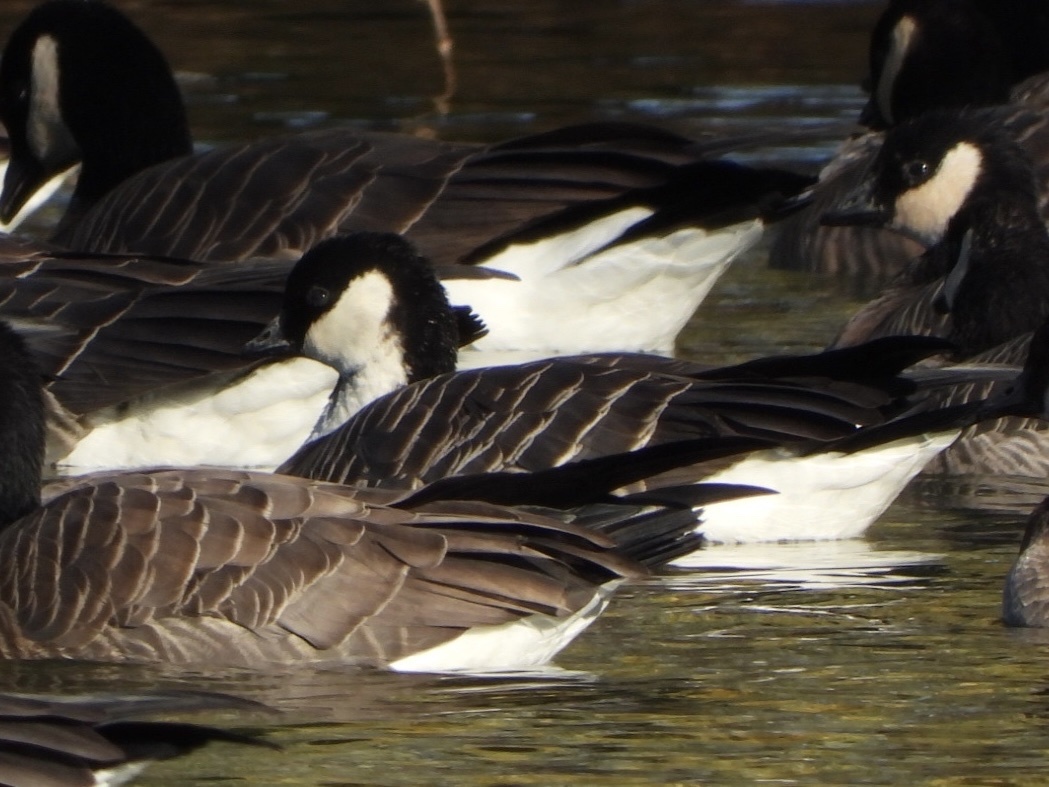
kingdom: Animalia
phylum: Chordata
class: Aves
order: Anseriformes
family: Anatidae
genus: Branta
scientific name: Branta hutchinsii
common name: Cackling goose
